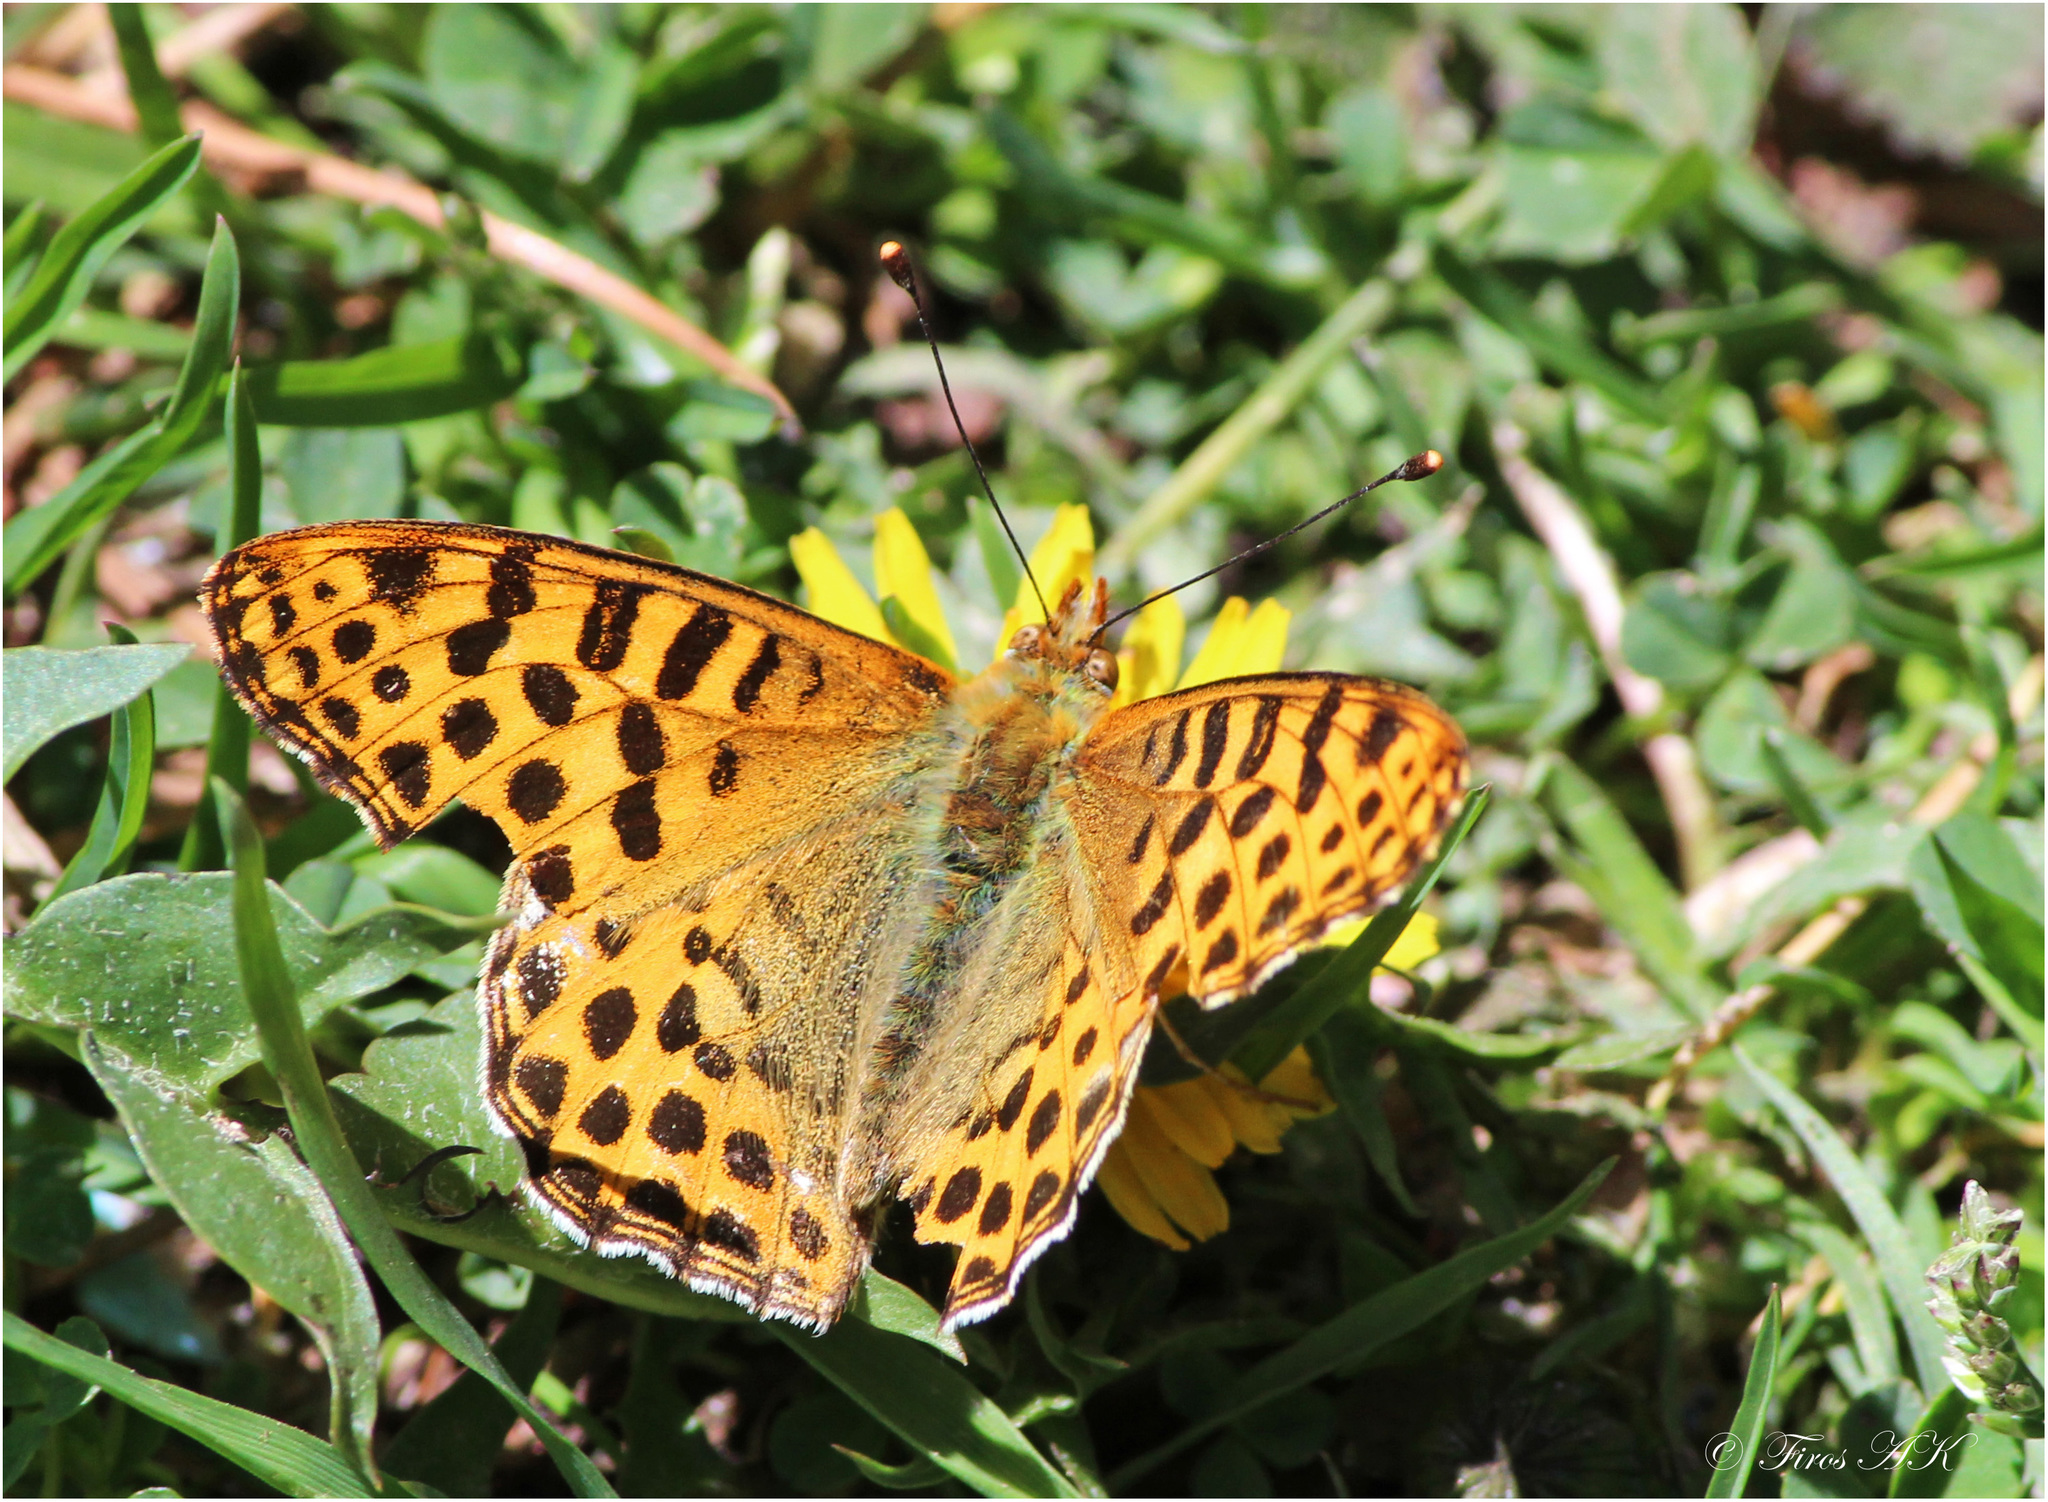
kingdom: Animalia
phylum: Arthropoda
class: Insecta
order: Lepidoptera
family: Nymphalidae
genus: Issoria
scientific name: Issoria
